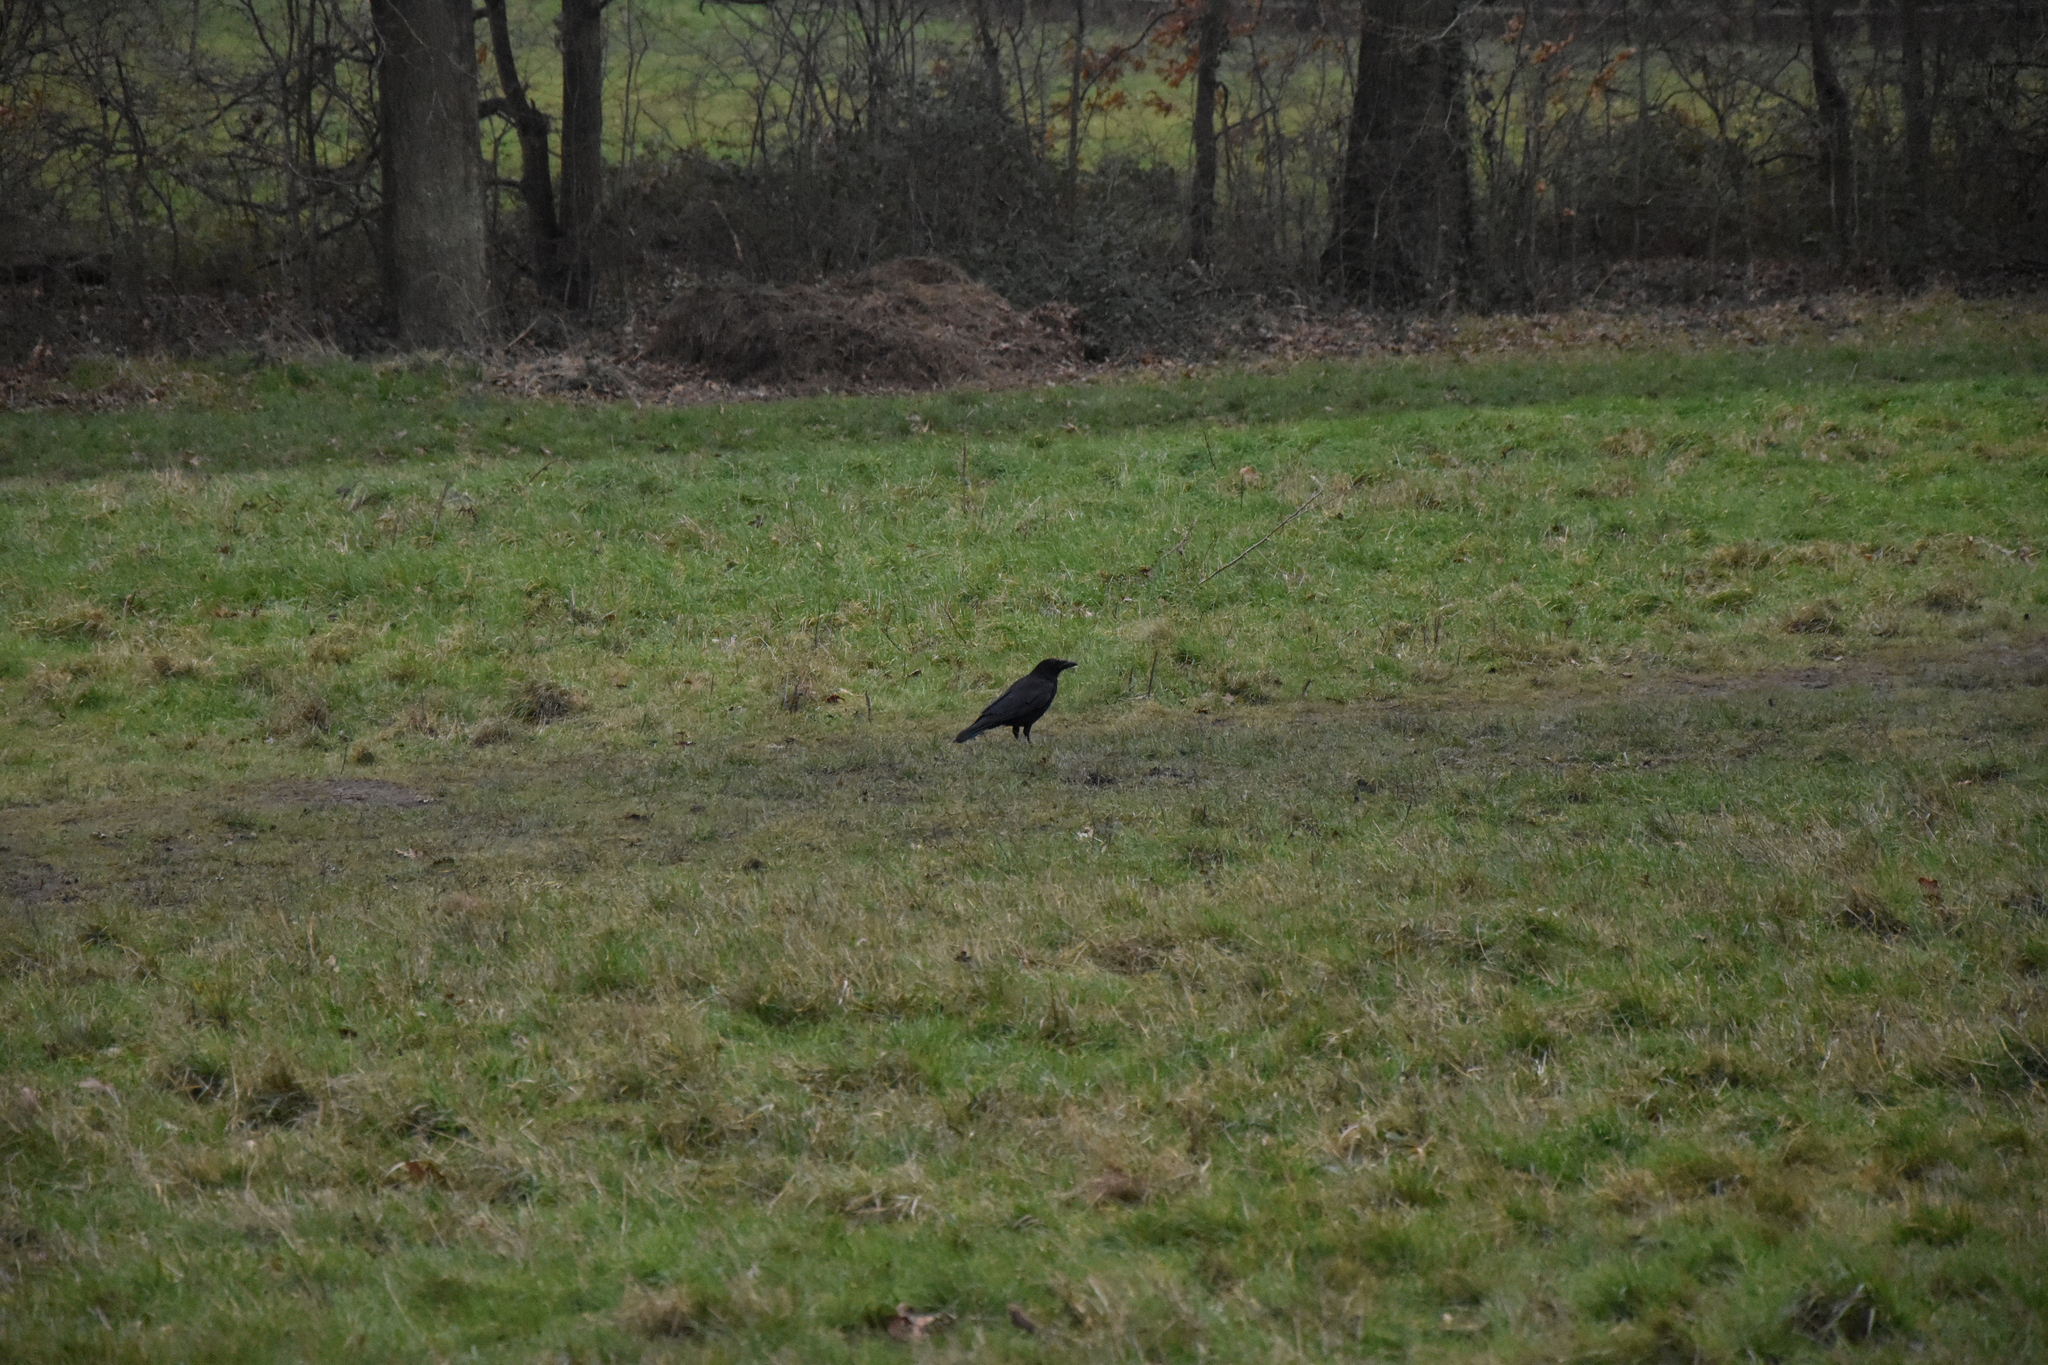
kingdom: Animalia
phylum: Chordata
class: Aves
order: Passeriformes
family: Corvidae
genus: Corvus
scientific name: Corvus corone
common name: Carrion crow
